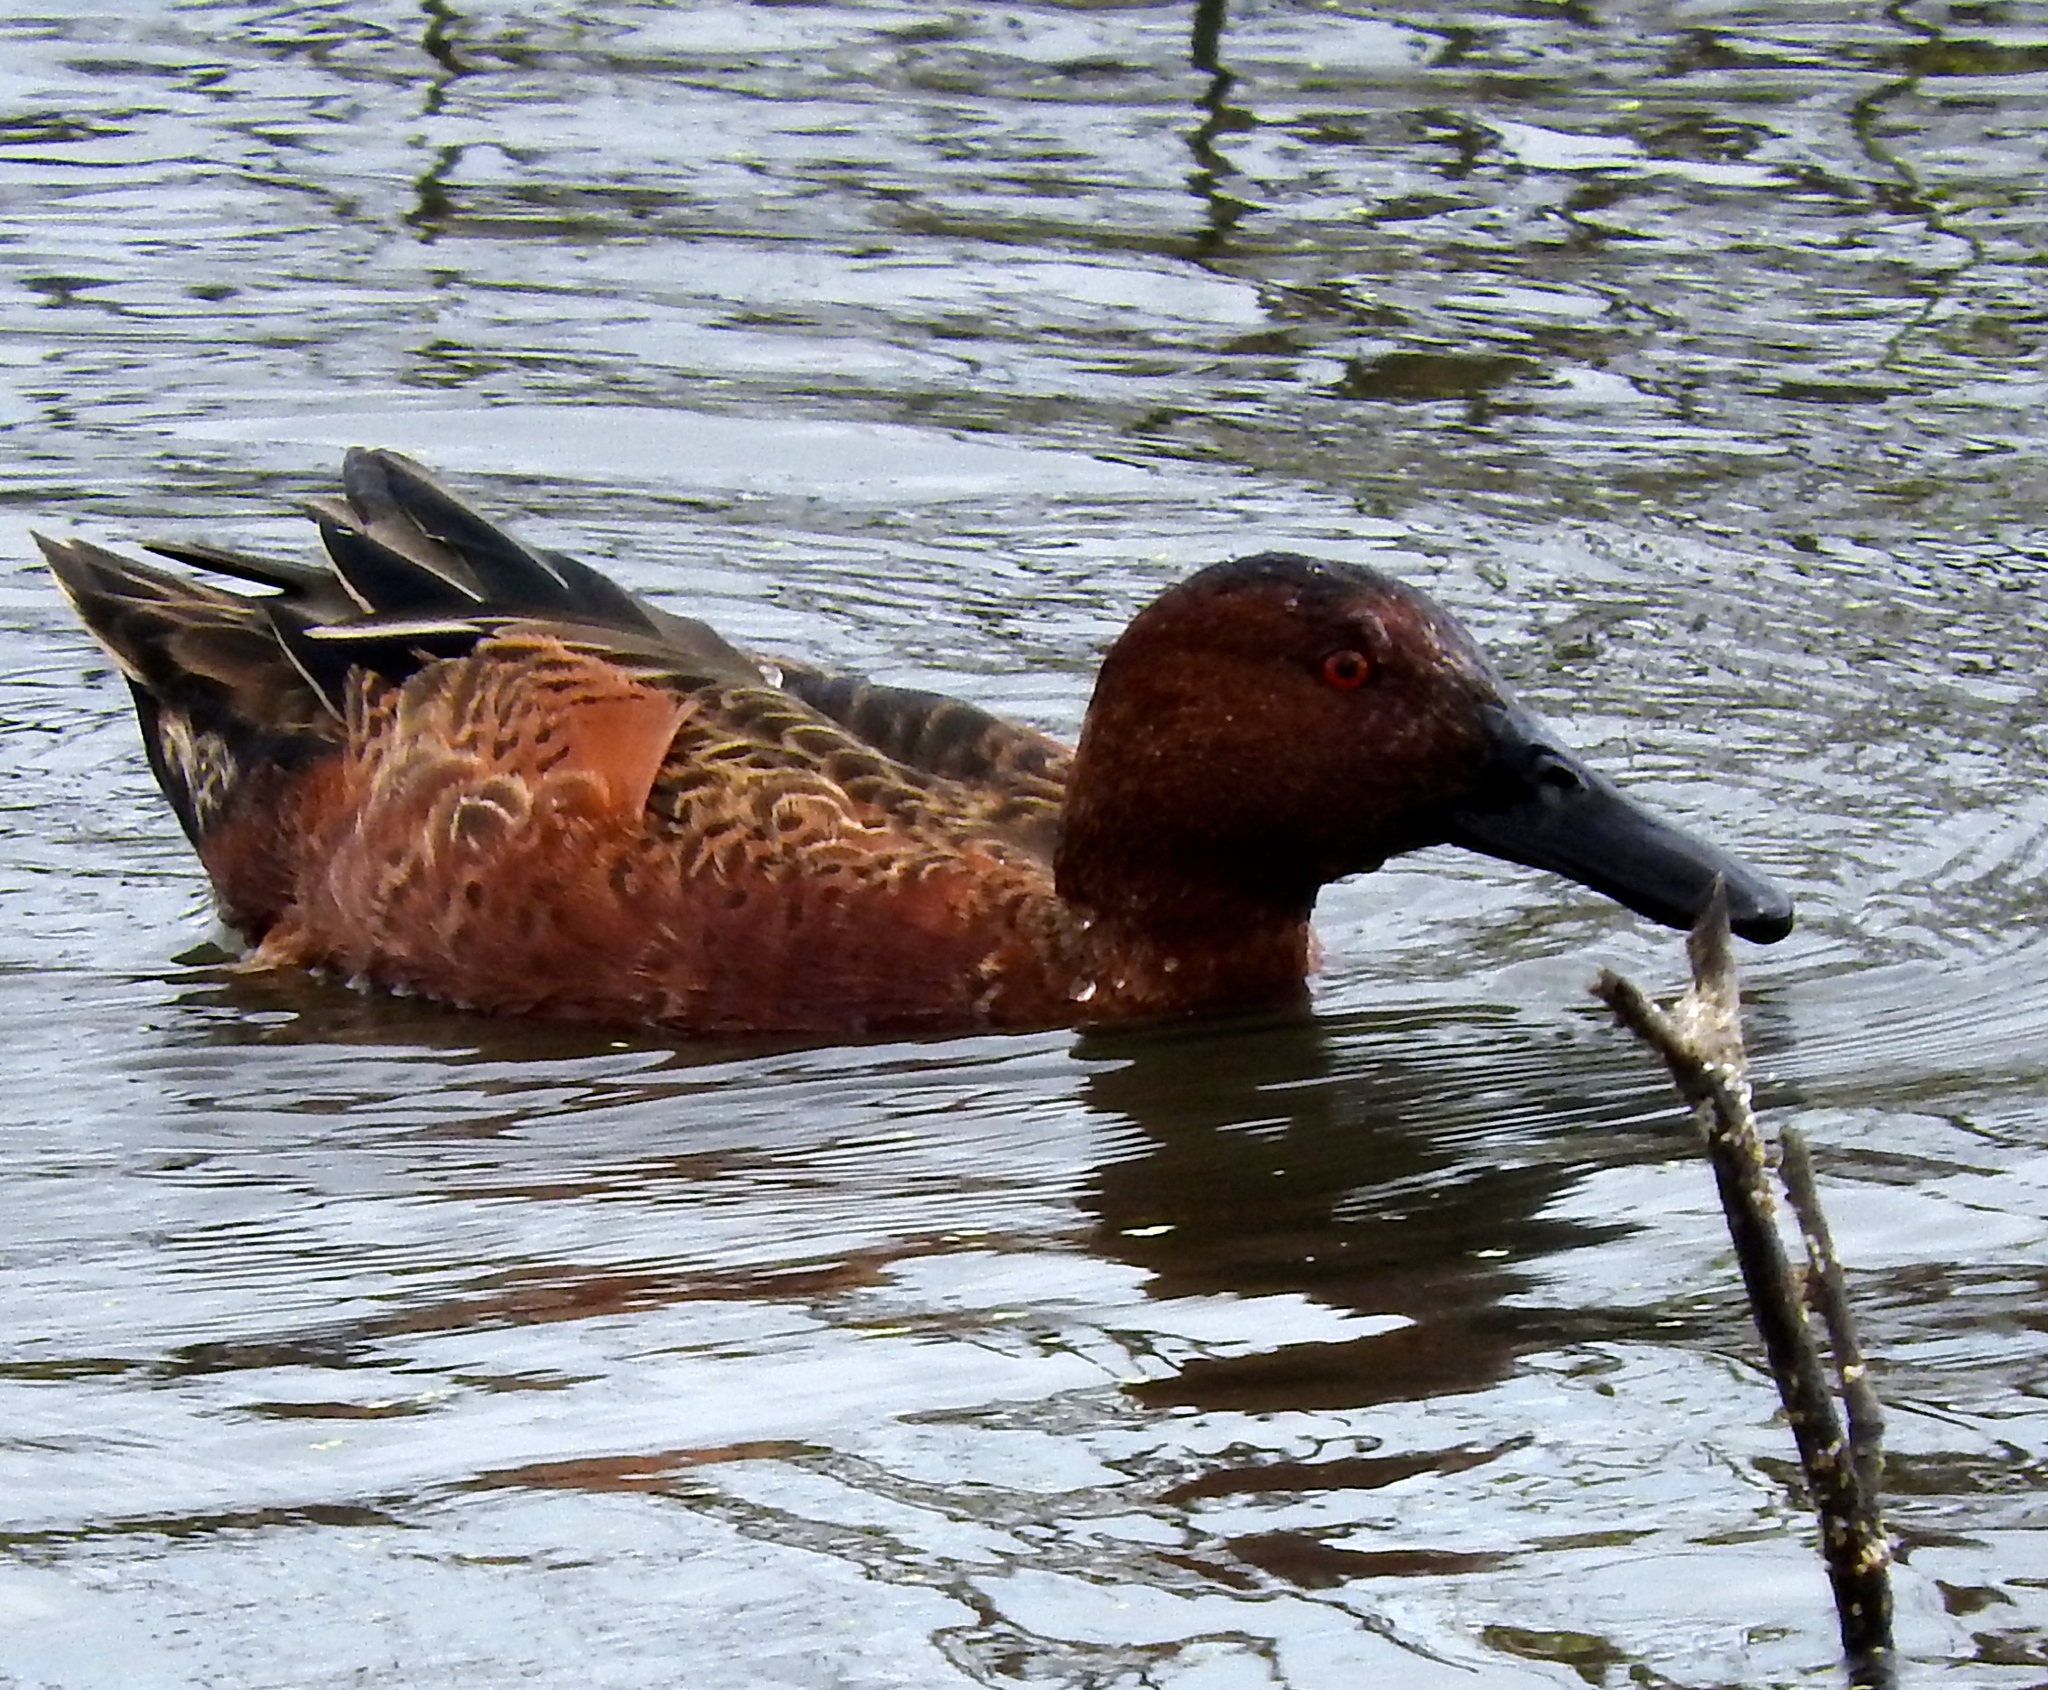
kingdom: Animalia
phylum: Chordata
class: Aves
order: Anseriformes
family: Anatidae
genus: Spatula
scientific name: Spatula cyanoptera
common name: Cinnamon teal
